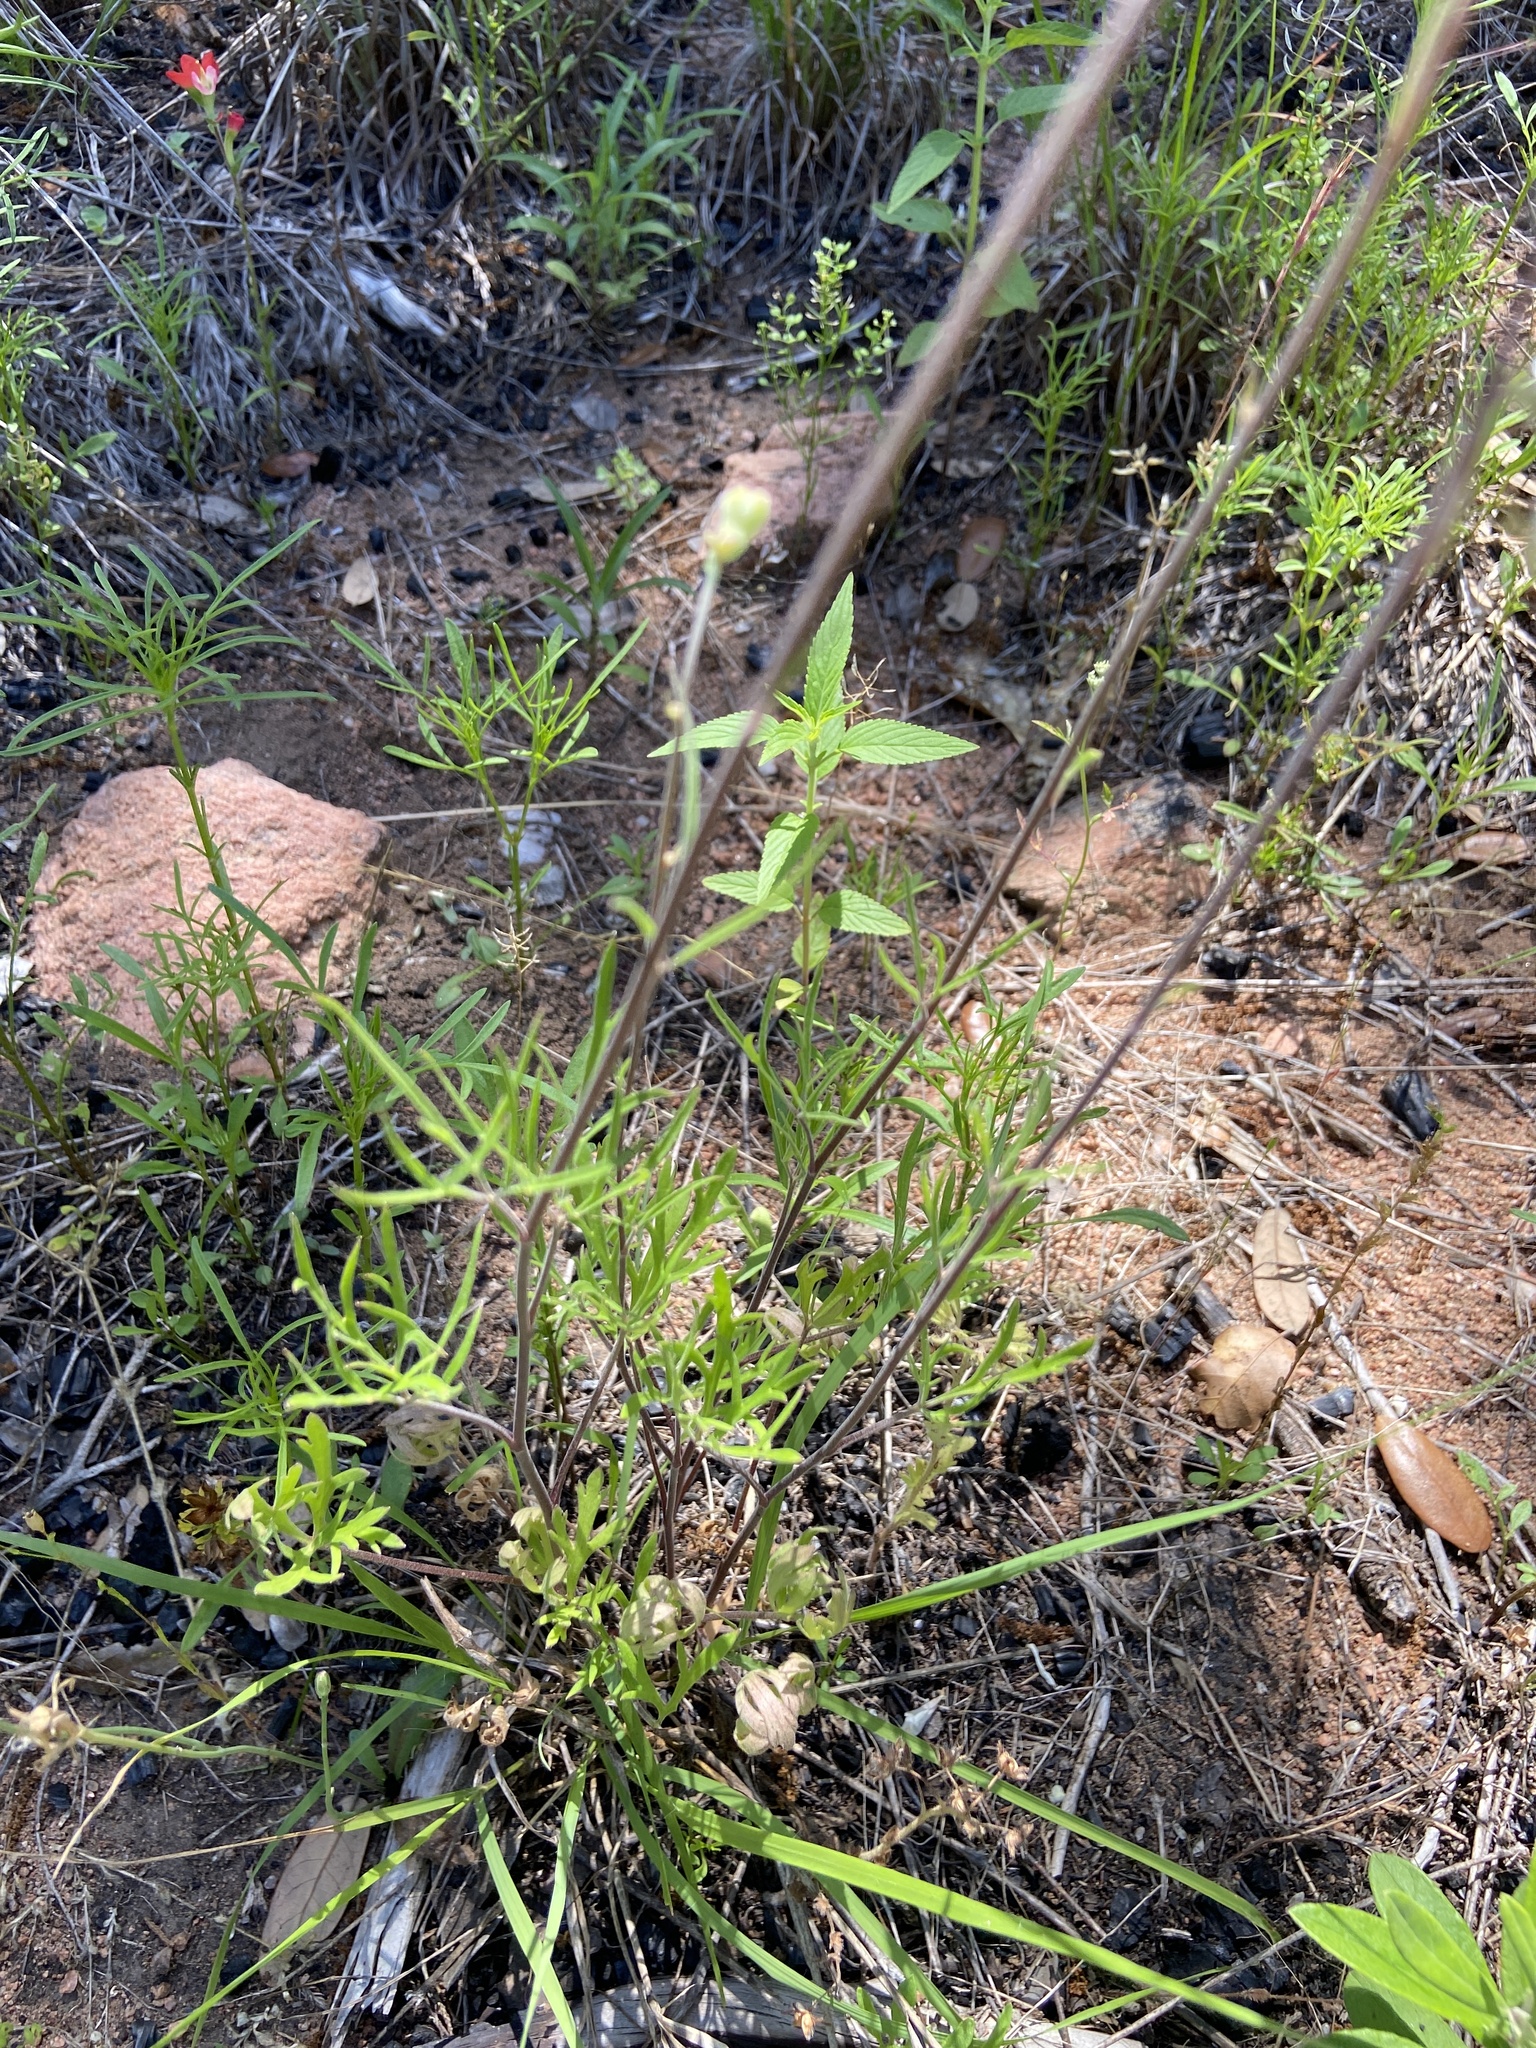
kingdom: Plantae
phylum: Tracheophyta
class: Magnoliopsida
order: Ranunculales
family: Ranunculaceae
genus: Delphinium
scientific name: Delphinium carolinianum
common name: Carolina larkspur
